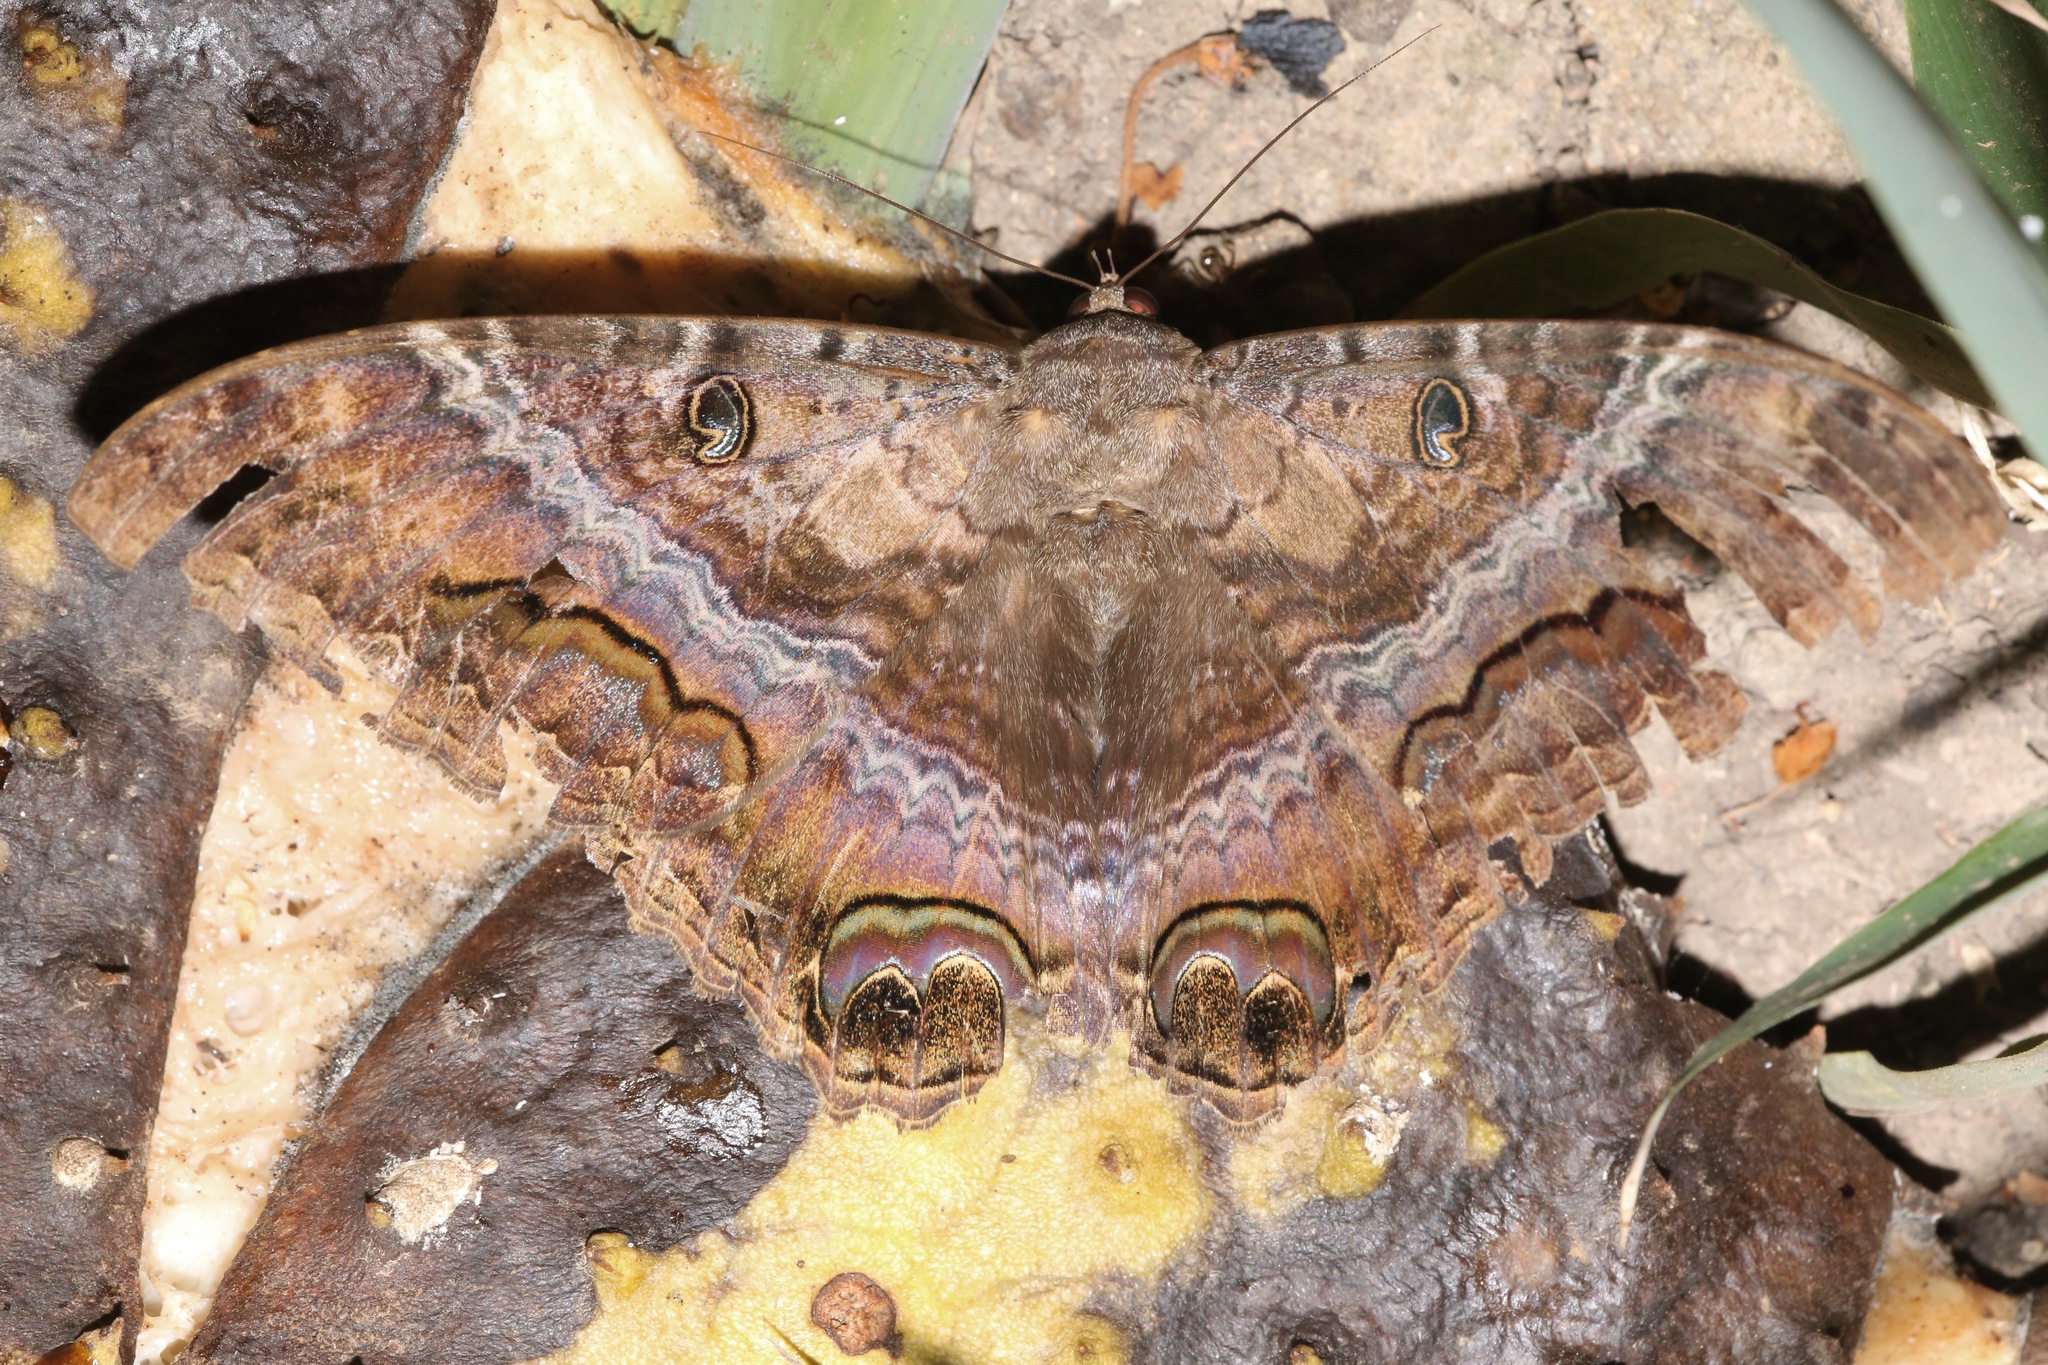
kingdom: Animalia
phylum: Arthropoda
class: Insecta
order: Lepidoptera
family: Erebidae
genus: Ascalapha
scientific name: Ascalapha odorata
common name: Black witch
